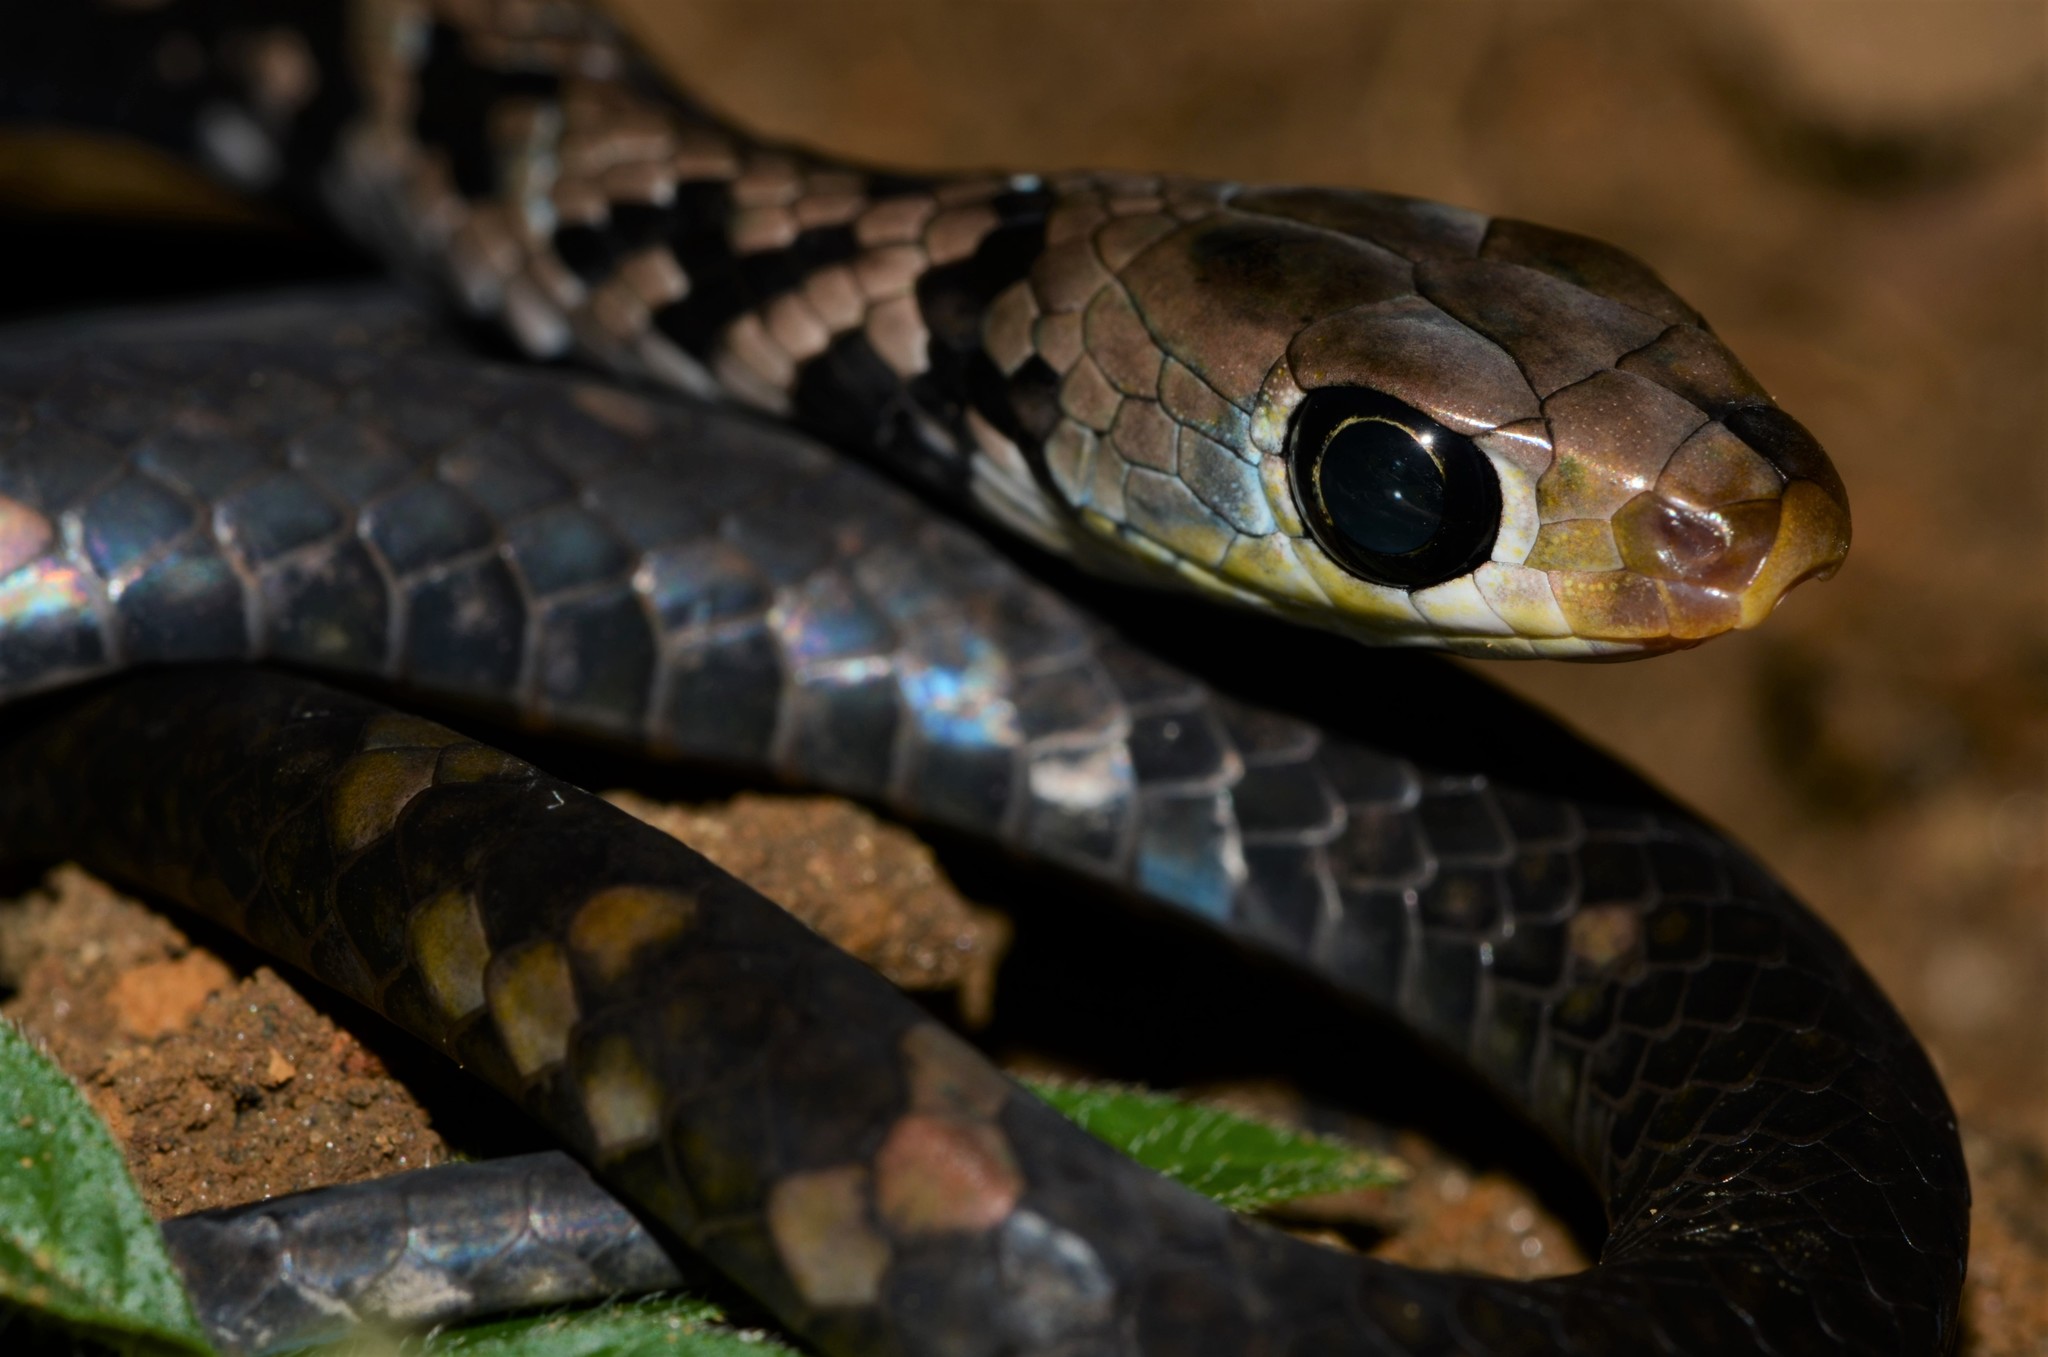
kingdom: Animalia
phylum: Chordata
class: Squamata
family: Colubridae
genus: Philothamnus
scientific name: Philothamnus carinatus
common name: Thirteen-scaled green snake
